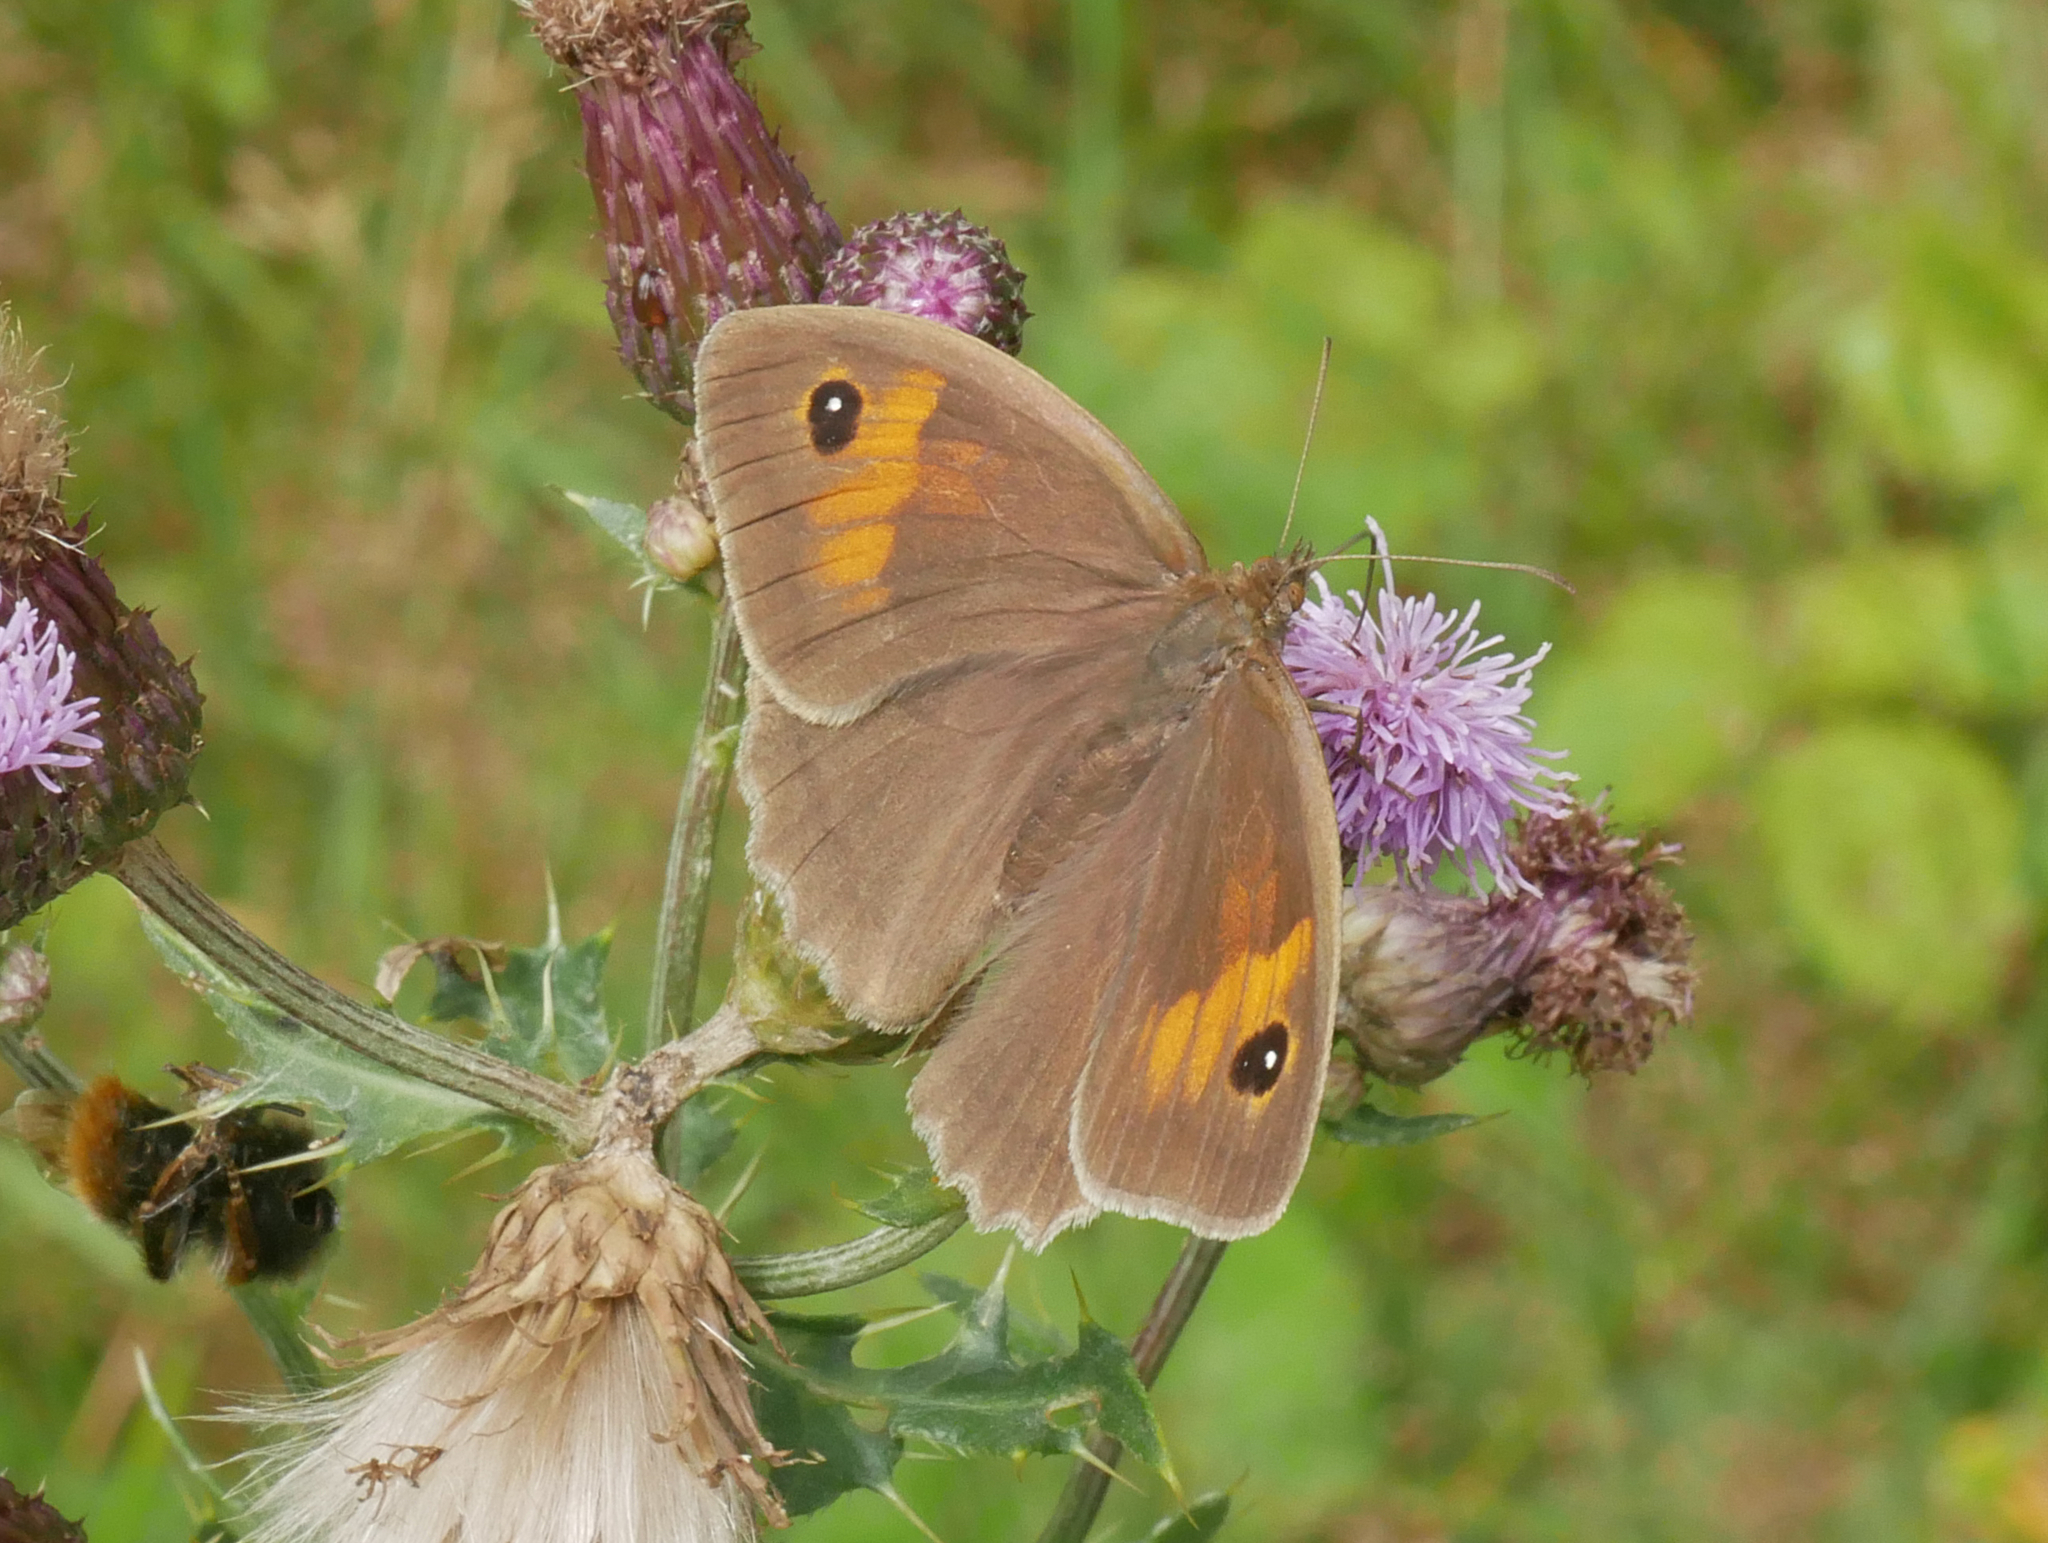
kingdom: Animalia
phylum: Arthropoda
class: Insecta
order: Lepidoptera
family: Nymphalidae
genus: Maniola
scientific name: Maniola jurtina
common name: Meadow brown
